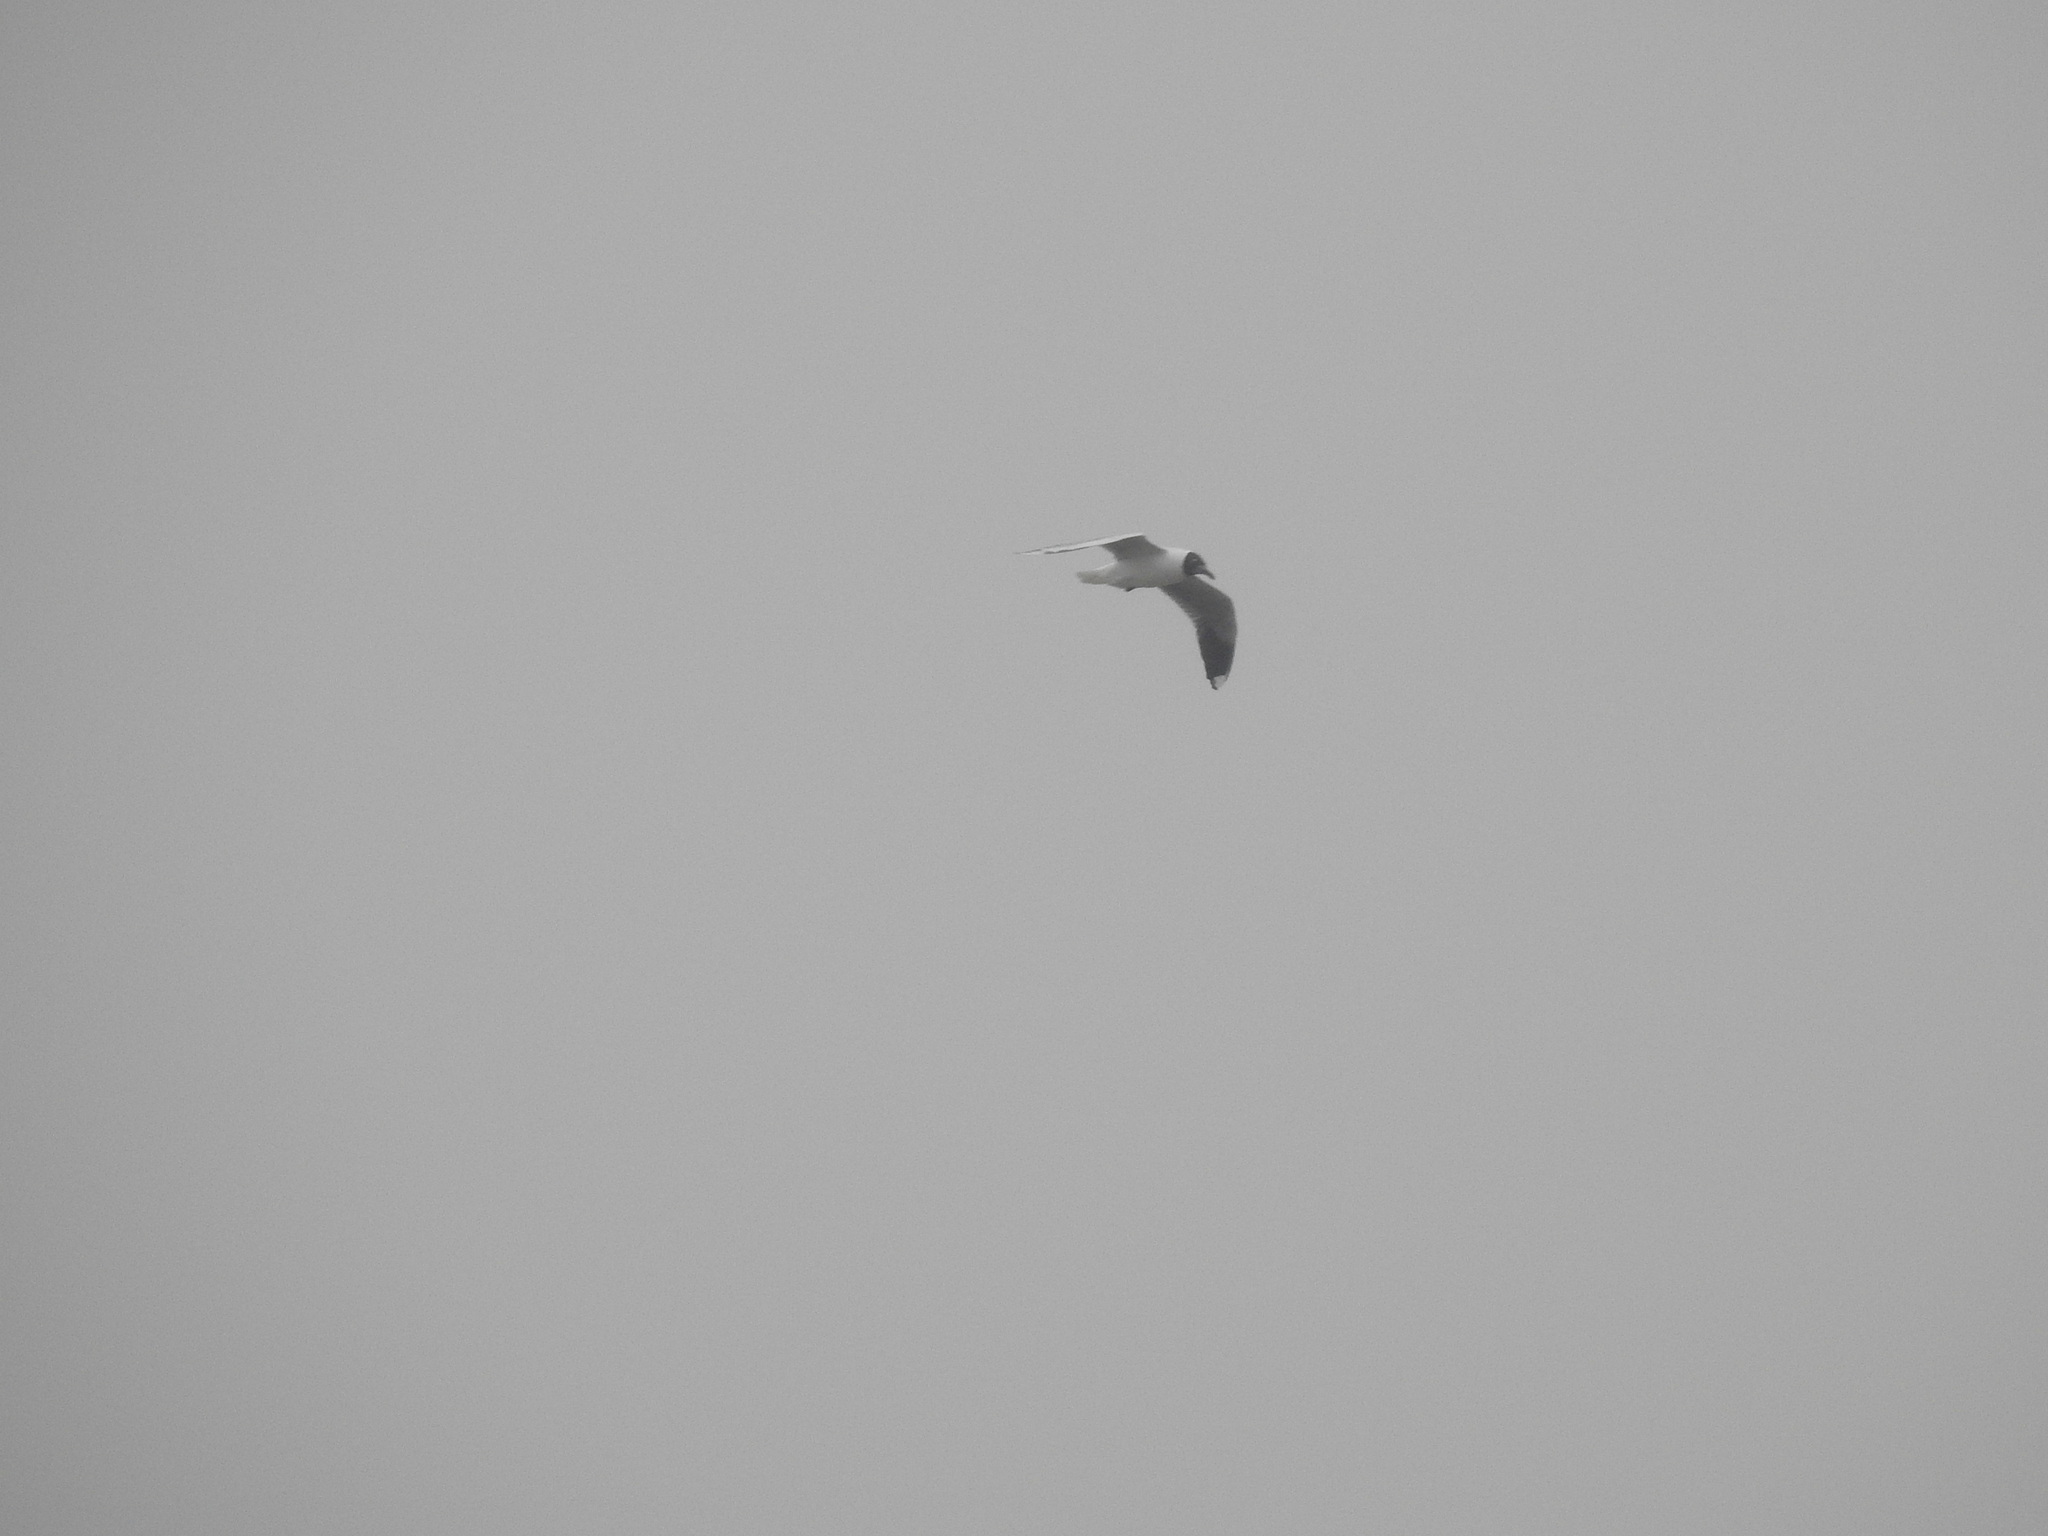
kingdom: Animalia
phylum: Chordata
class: Aves
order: Charadriiformes
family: Laridae
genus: Chroicocephalus
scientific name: Chroicocephalus maculipennis
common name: Brown-hooded gull
